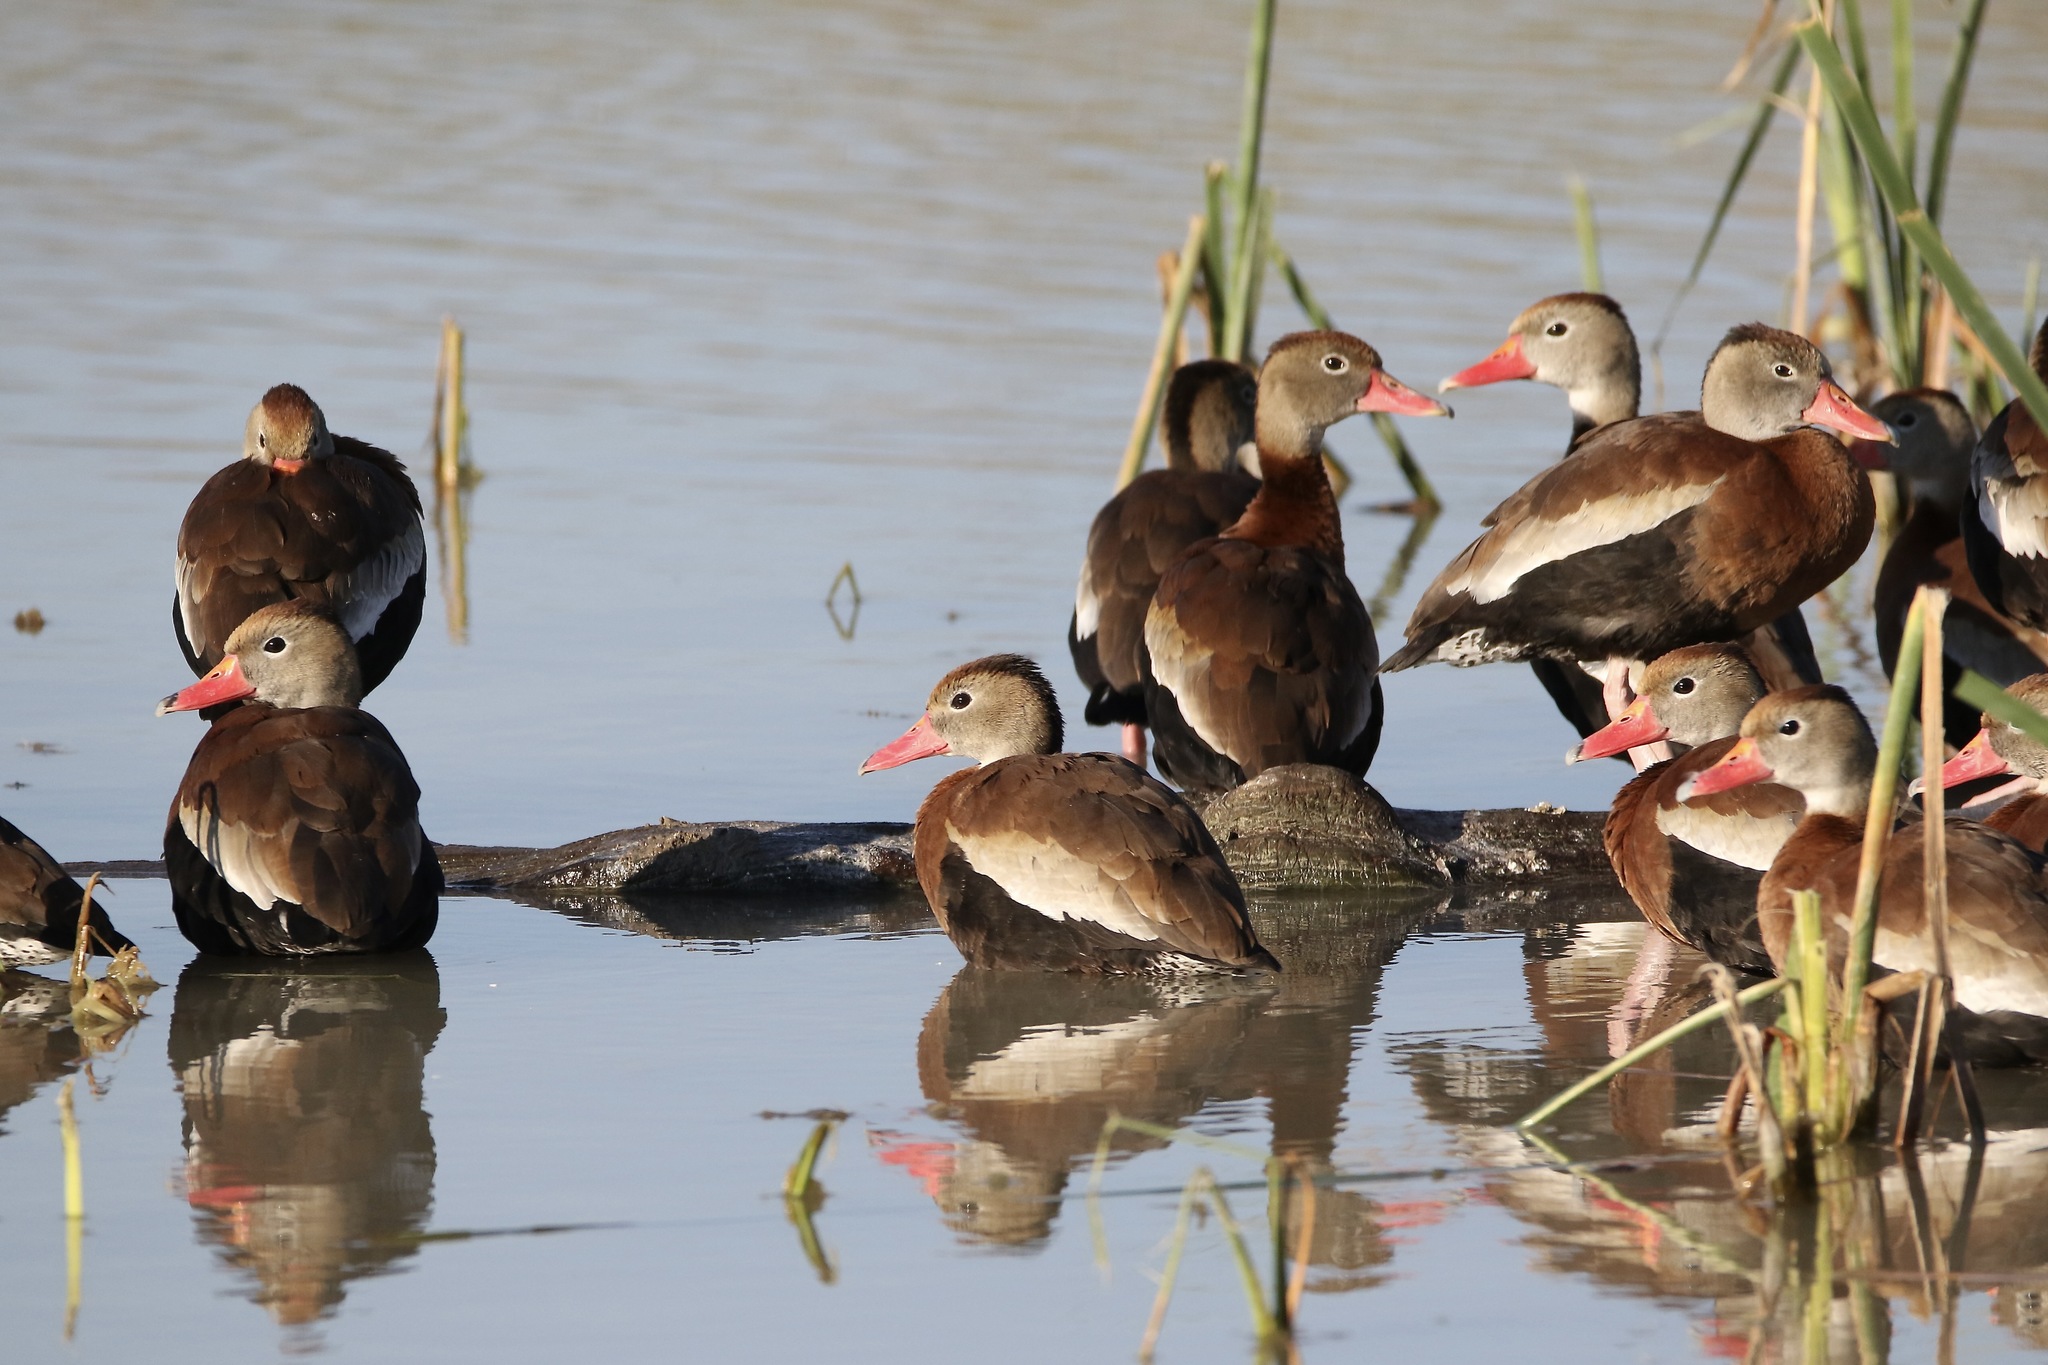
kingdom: Animalia
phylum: Chordata
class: Aves
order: Anseriformes
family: Anatidae
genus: Dendrocygna
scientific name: Dendrocygna autumnalis
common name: Black-bellied whistling duck
